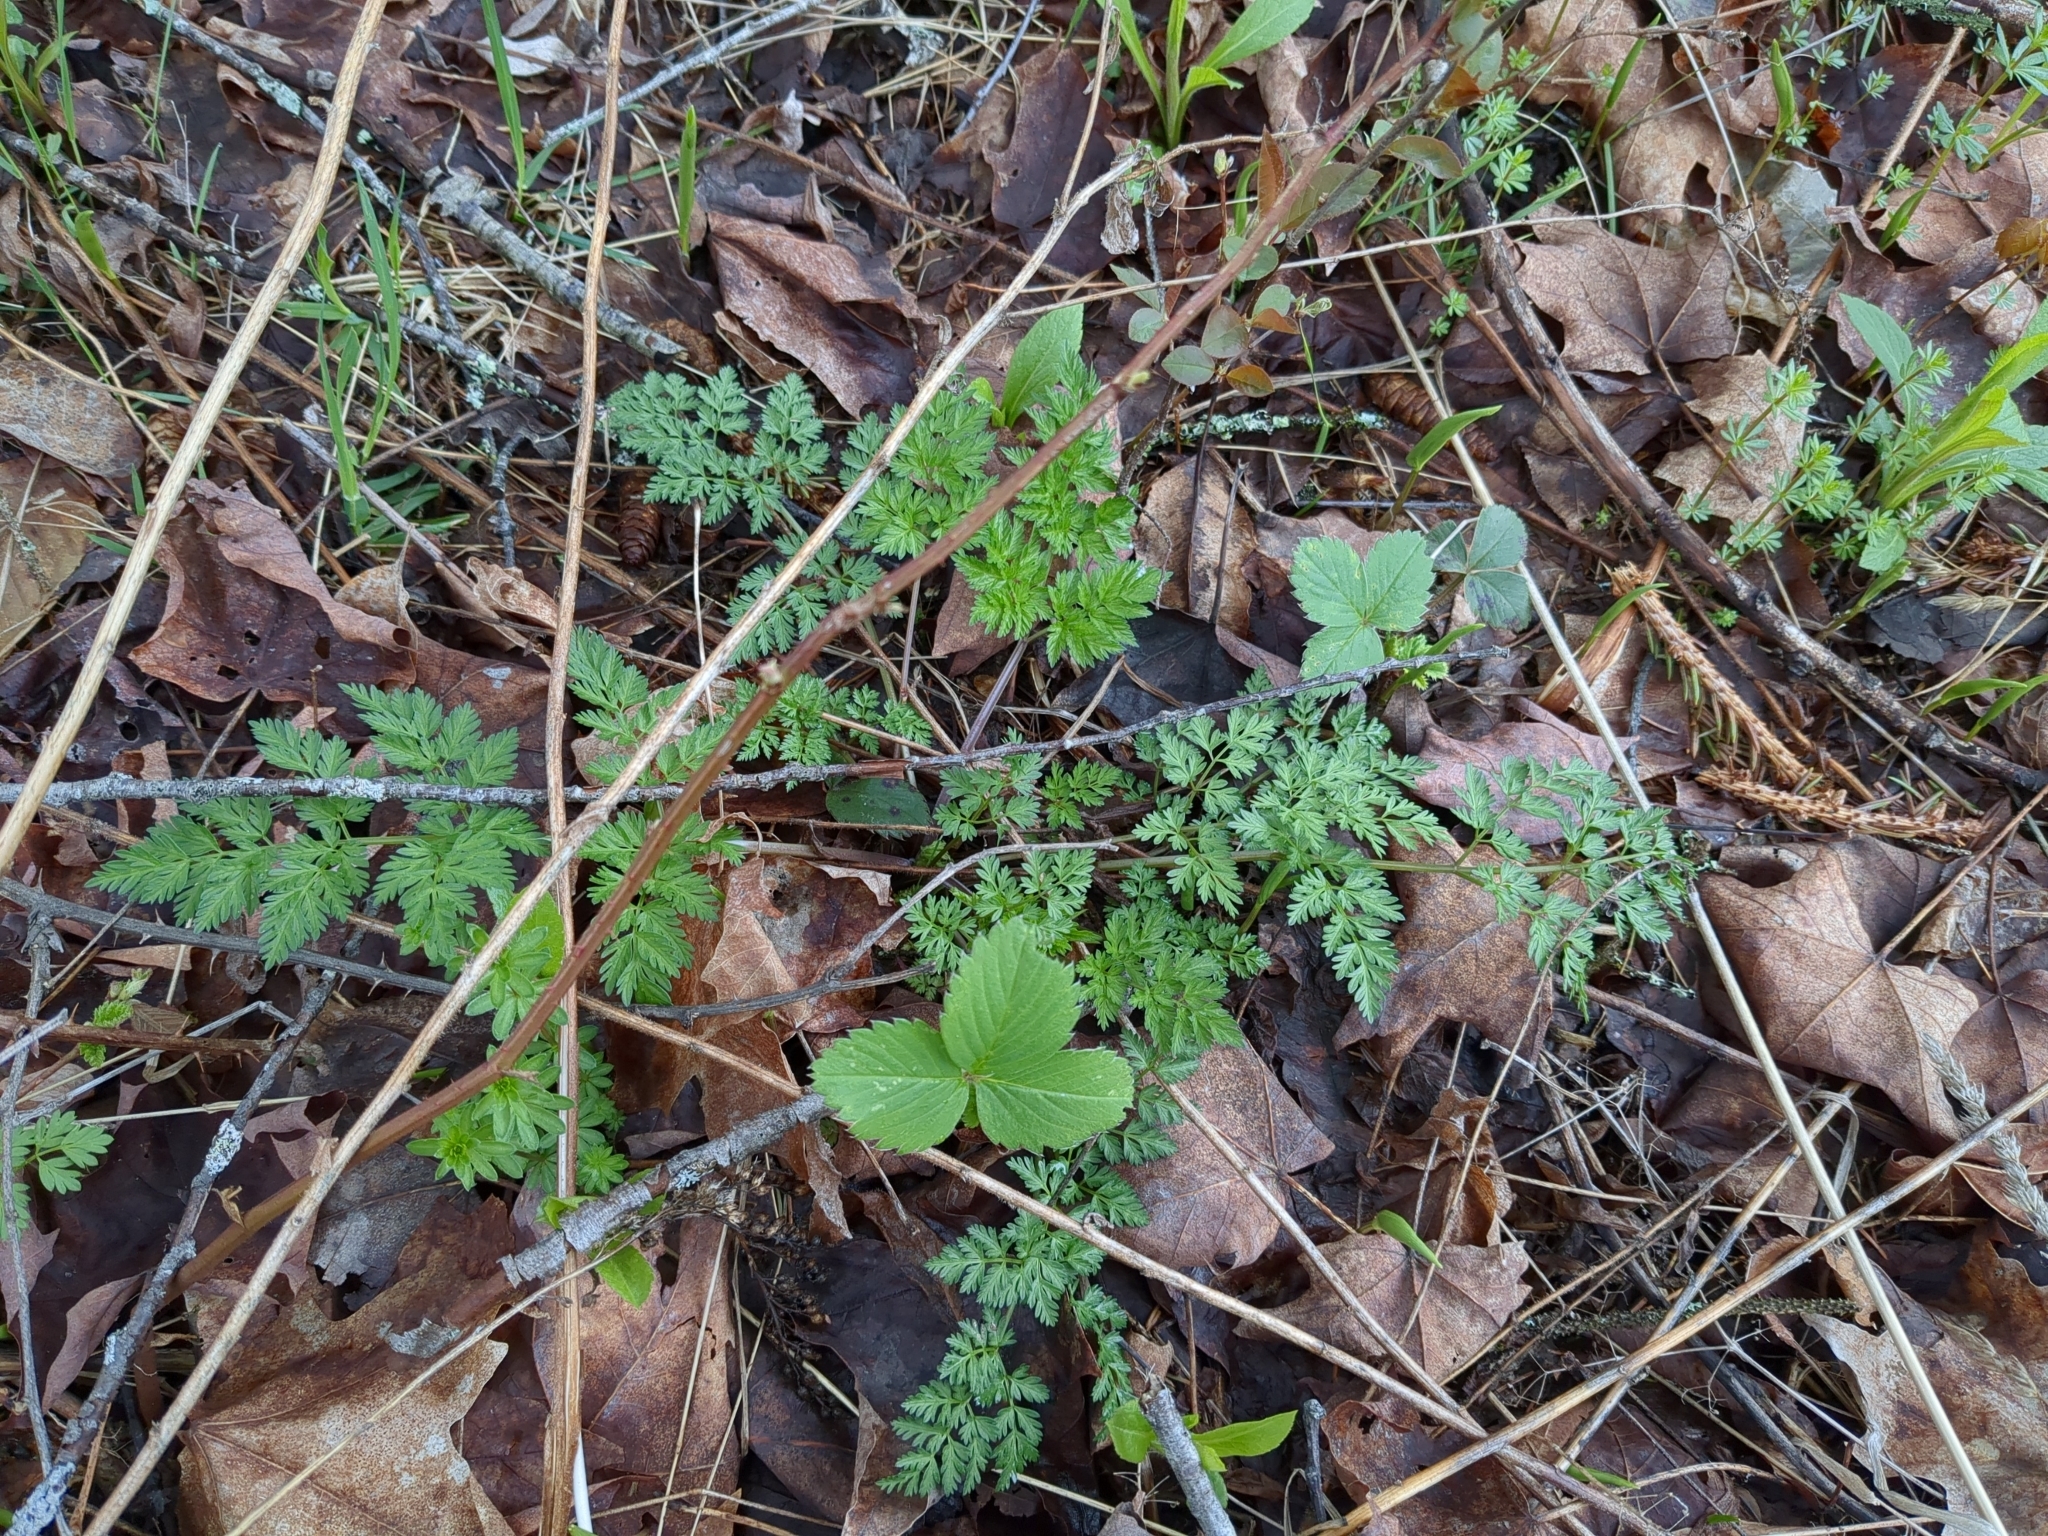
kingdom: Plantae
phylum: Tracheophyta
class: Magnoliopsida
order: Apiales
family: Apiaceae
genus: Anthriscus
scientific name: Anthriscus sylvestris
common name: Cow parsley
